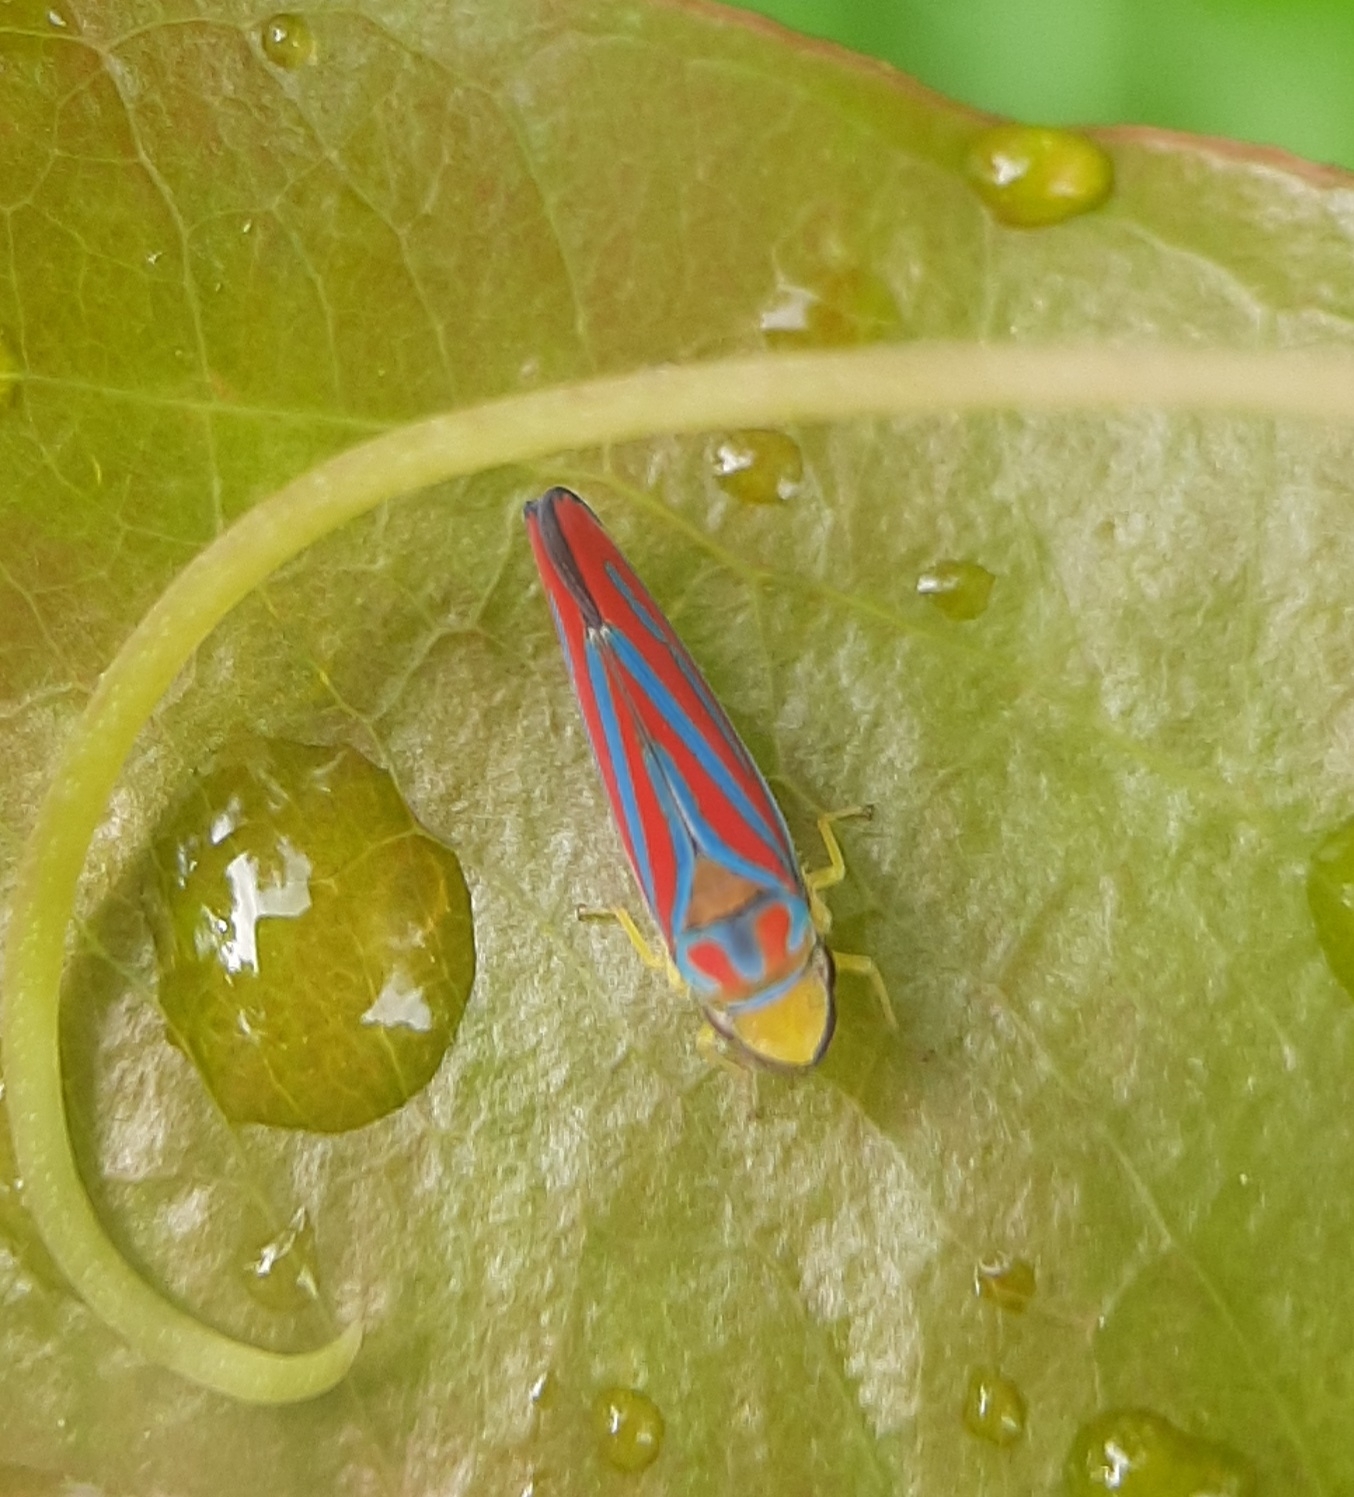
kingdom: Animalia
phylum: Arthropoda
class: Insecta
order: Hemiptera
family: Cicadellidae
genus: Graphocephala
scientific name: Graphocephala coccinea
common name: Candy-striped leafhopper
